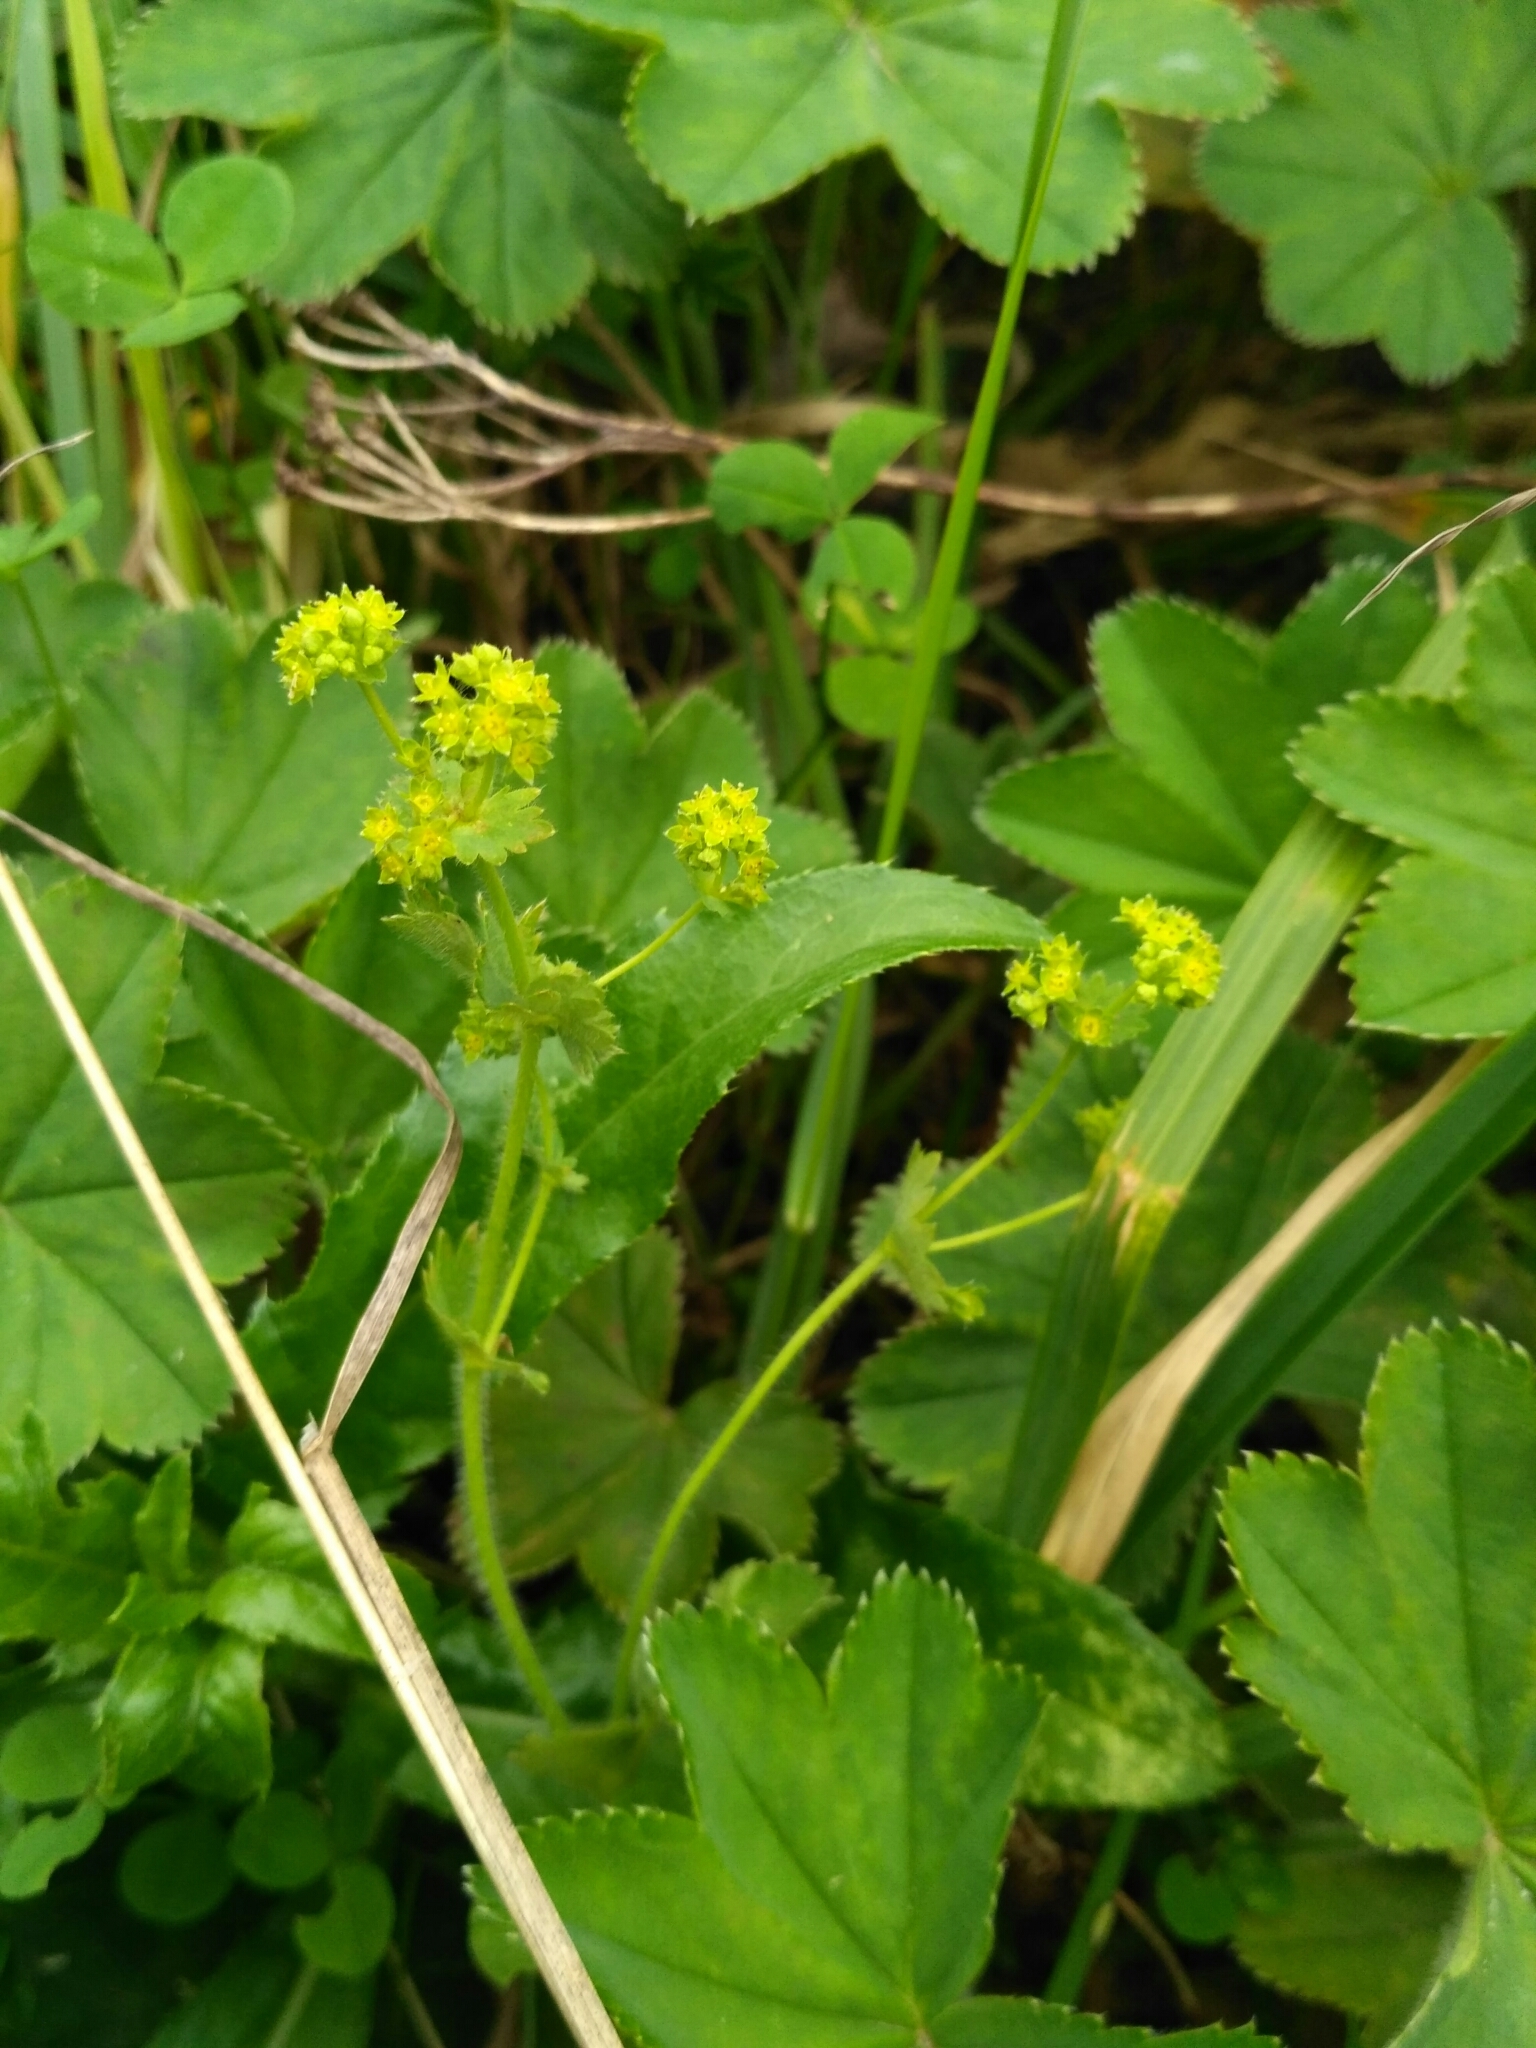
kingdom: Plantae
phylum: Tracheophyta
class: Magnoliopsida
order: Rosales
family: Rosaceae
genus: Alchemilla
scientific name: Alchemilla monticola
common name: Hairy lady's mantle
